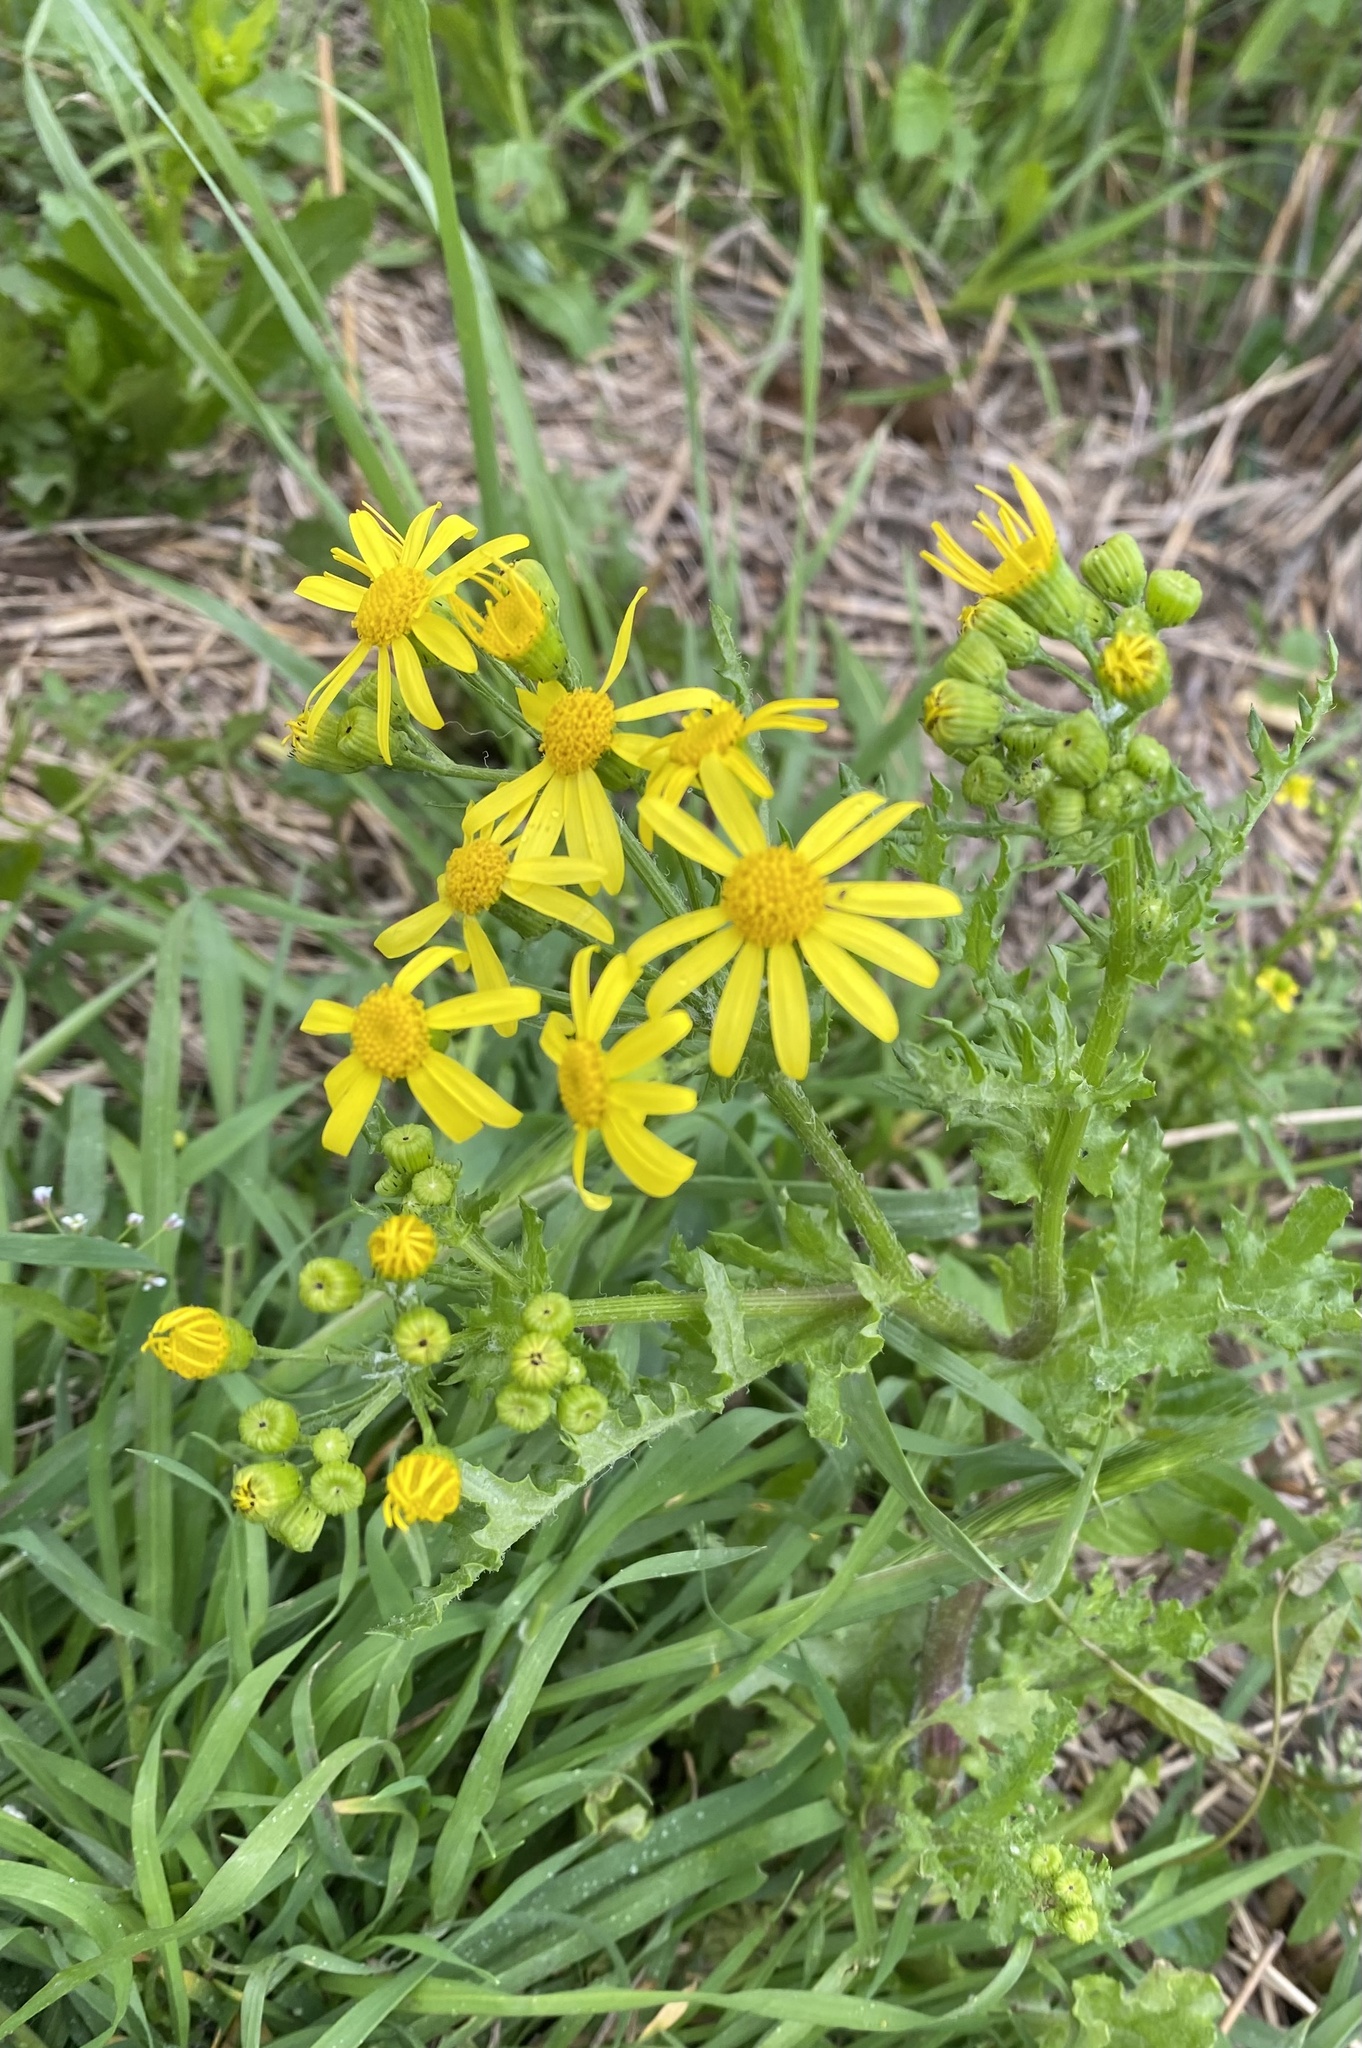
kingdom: Plantae
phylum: Tracheophyta
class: Magnoliopsida
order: Asterales
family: Asteraceae
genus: Senecio
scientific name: Senecio vernalis
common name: Eastern groundsel
